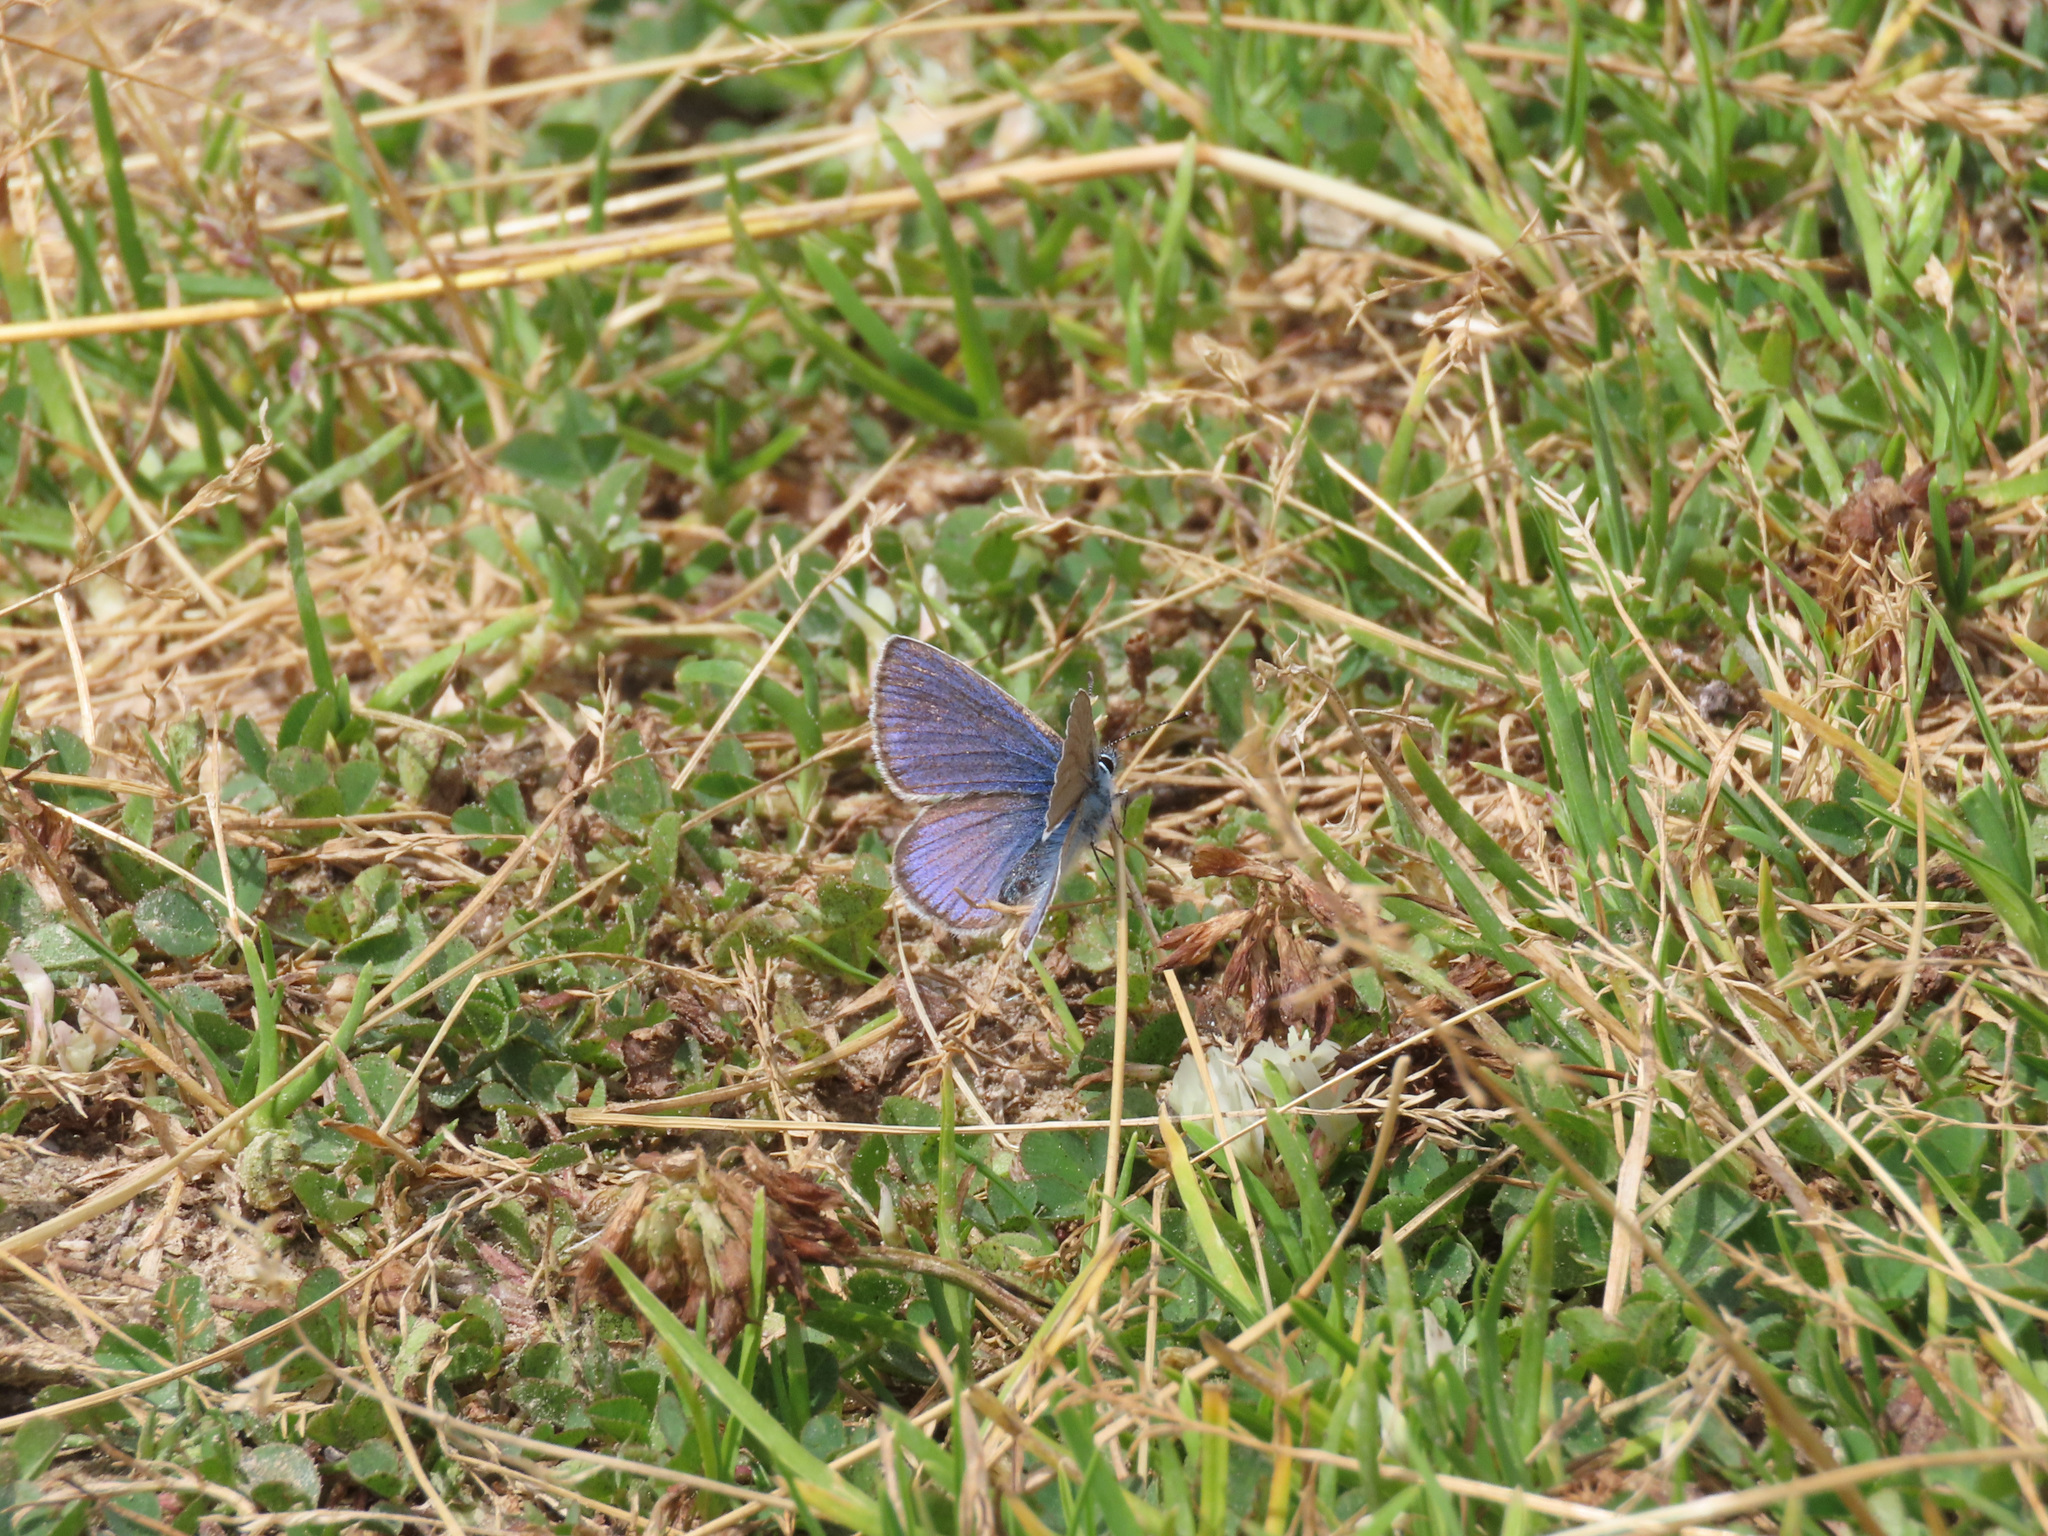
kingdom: Animalia
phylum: Arthropoda
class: Insecta
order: Lepidoptera
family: Lycaenidae
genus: Cyaniris
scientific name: Cyaniris semiargus
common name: Mazarine blue
